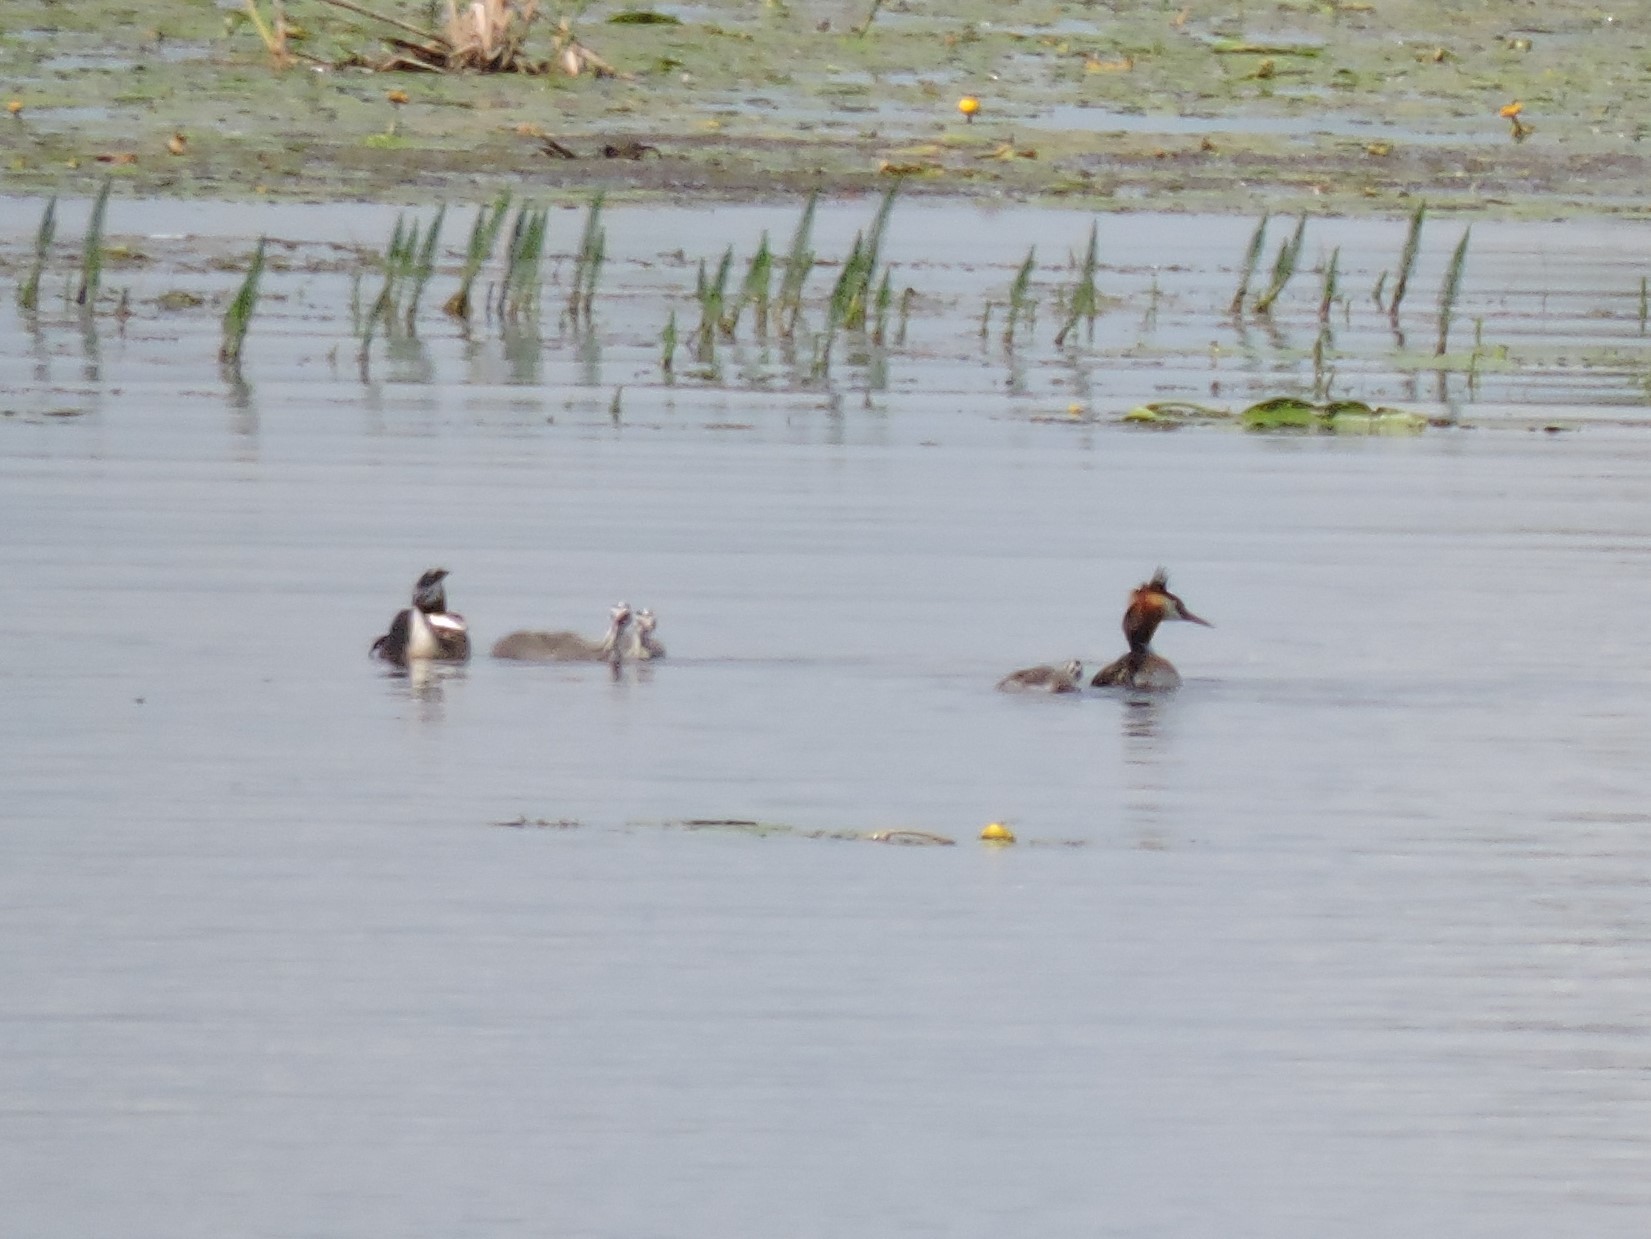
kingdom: Animalia
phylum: Chordata
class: Aves
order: Podicipediformes
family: Podicipedidae
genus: Podiceps
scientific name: Podiceps cristatus
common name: Great crested grebe
